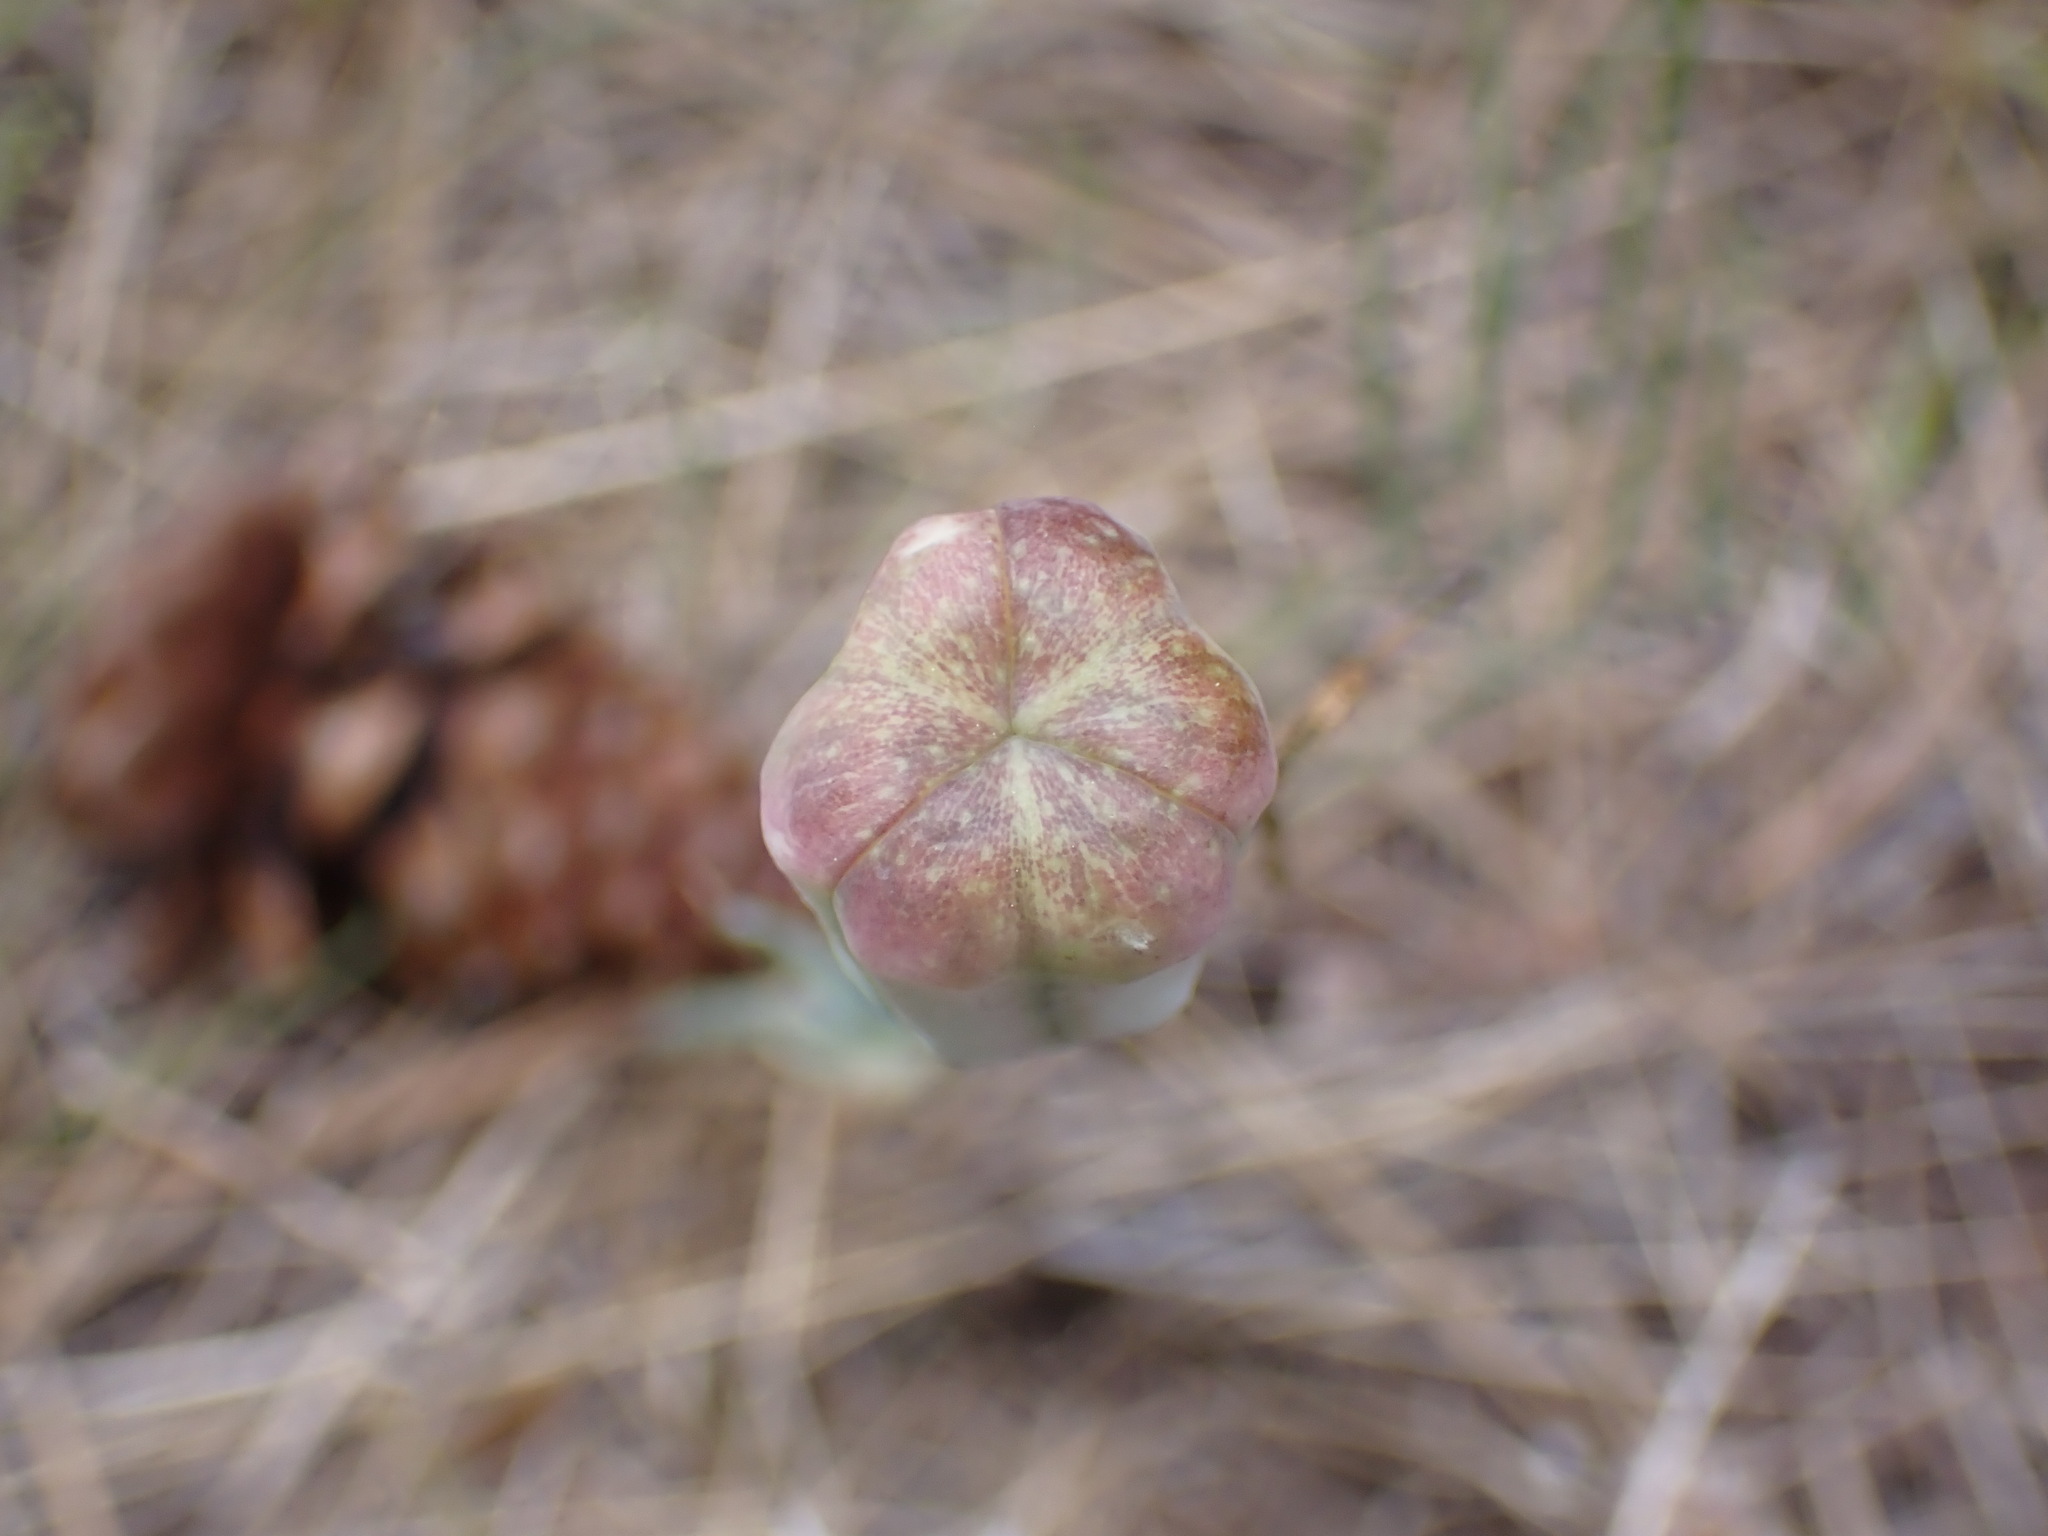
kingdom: Plantae
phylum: Tracheophyta
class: Liliopsida
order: Liliales
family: Liliaceae
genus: Fritillaria
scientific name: Fritillaria pudica
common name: Yellow fritillary
